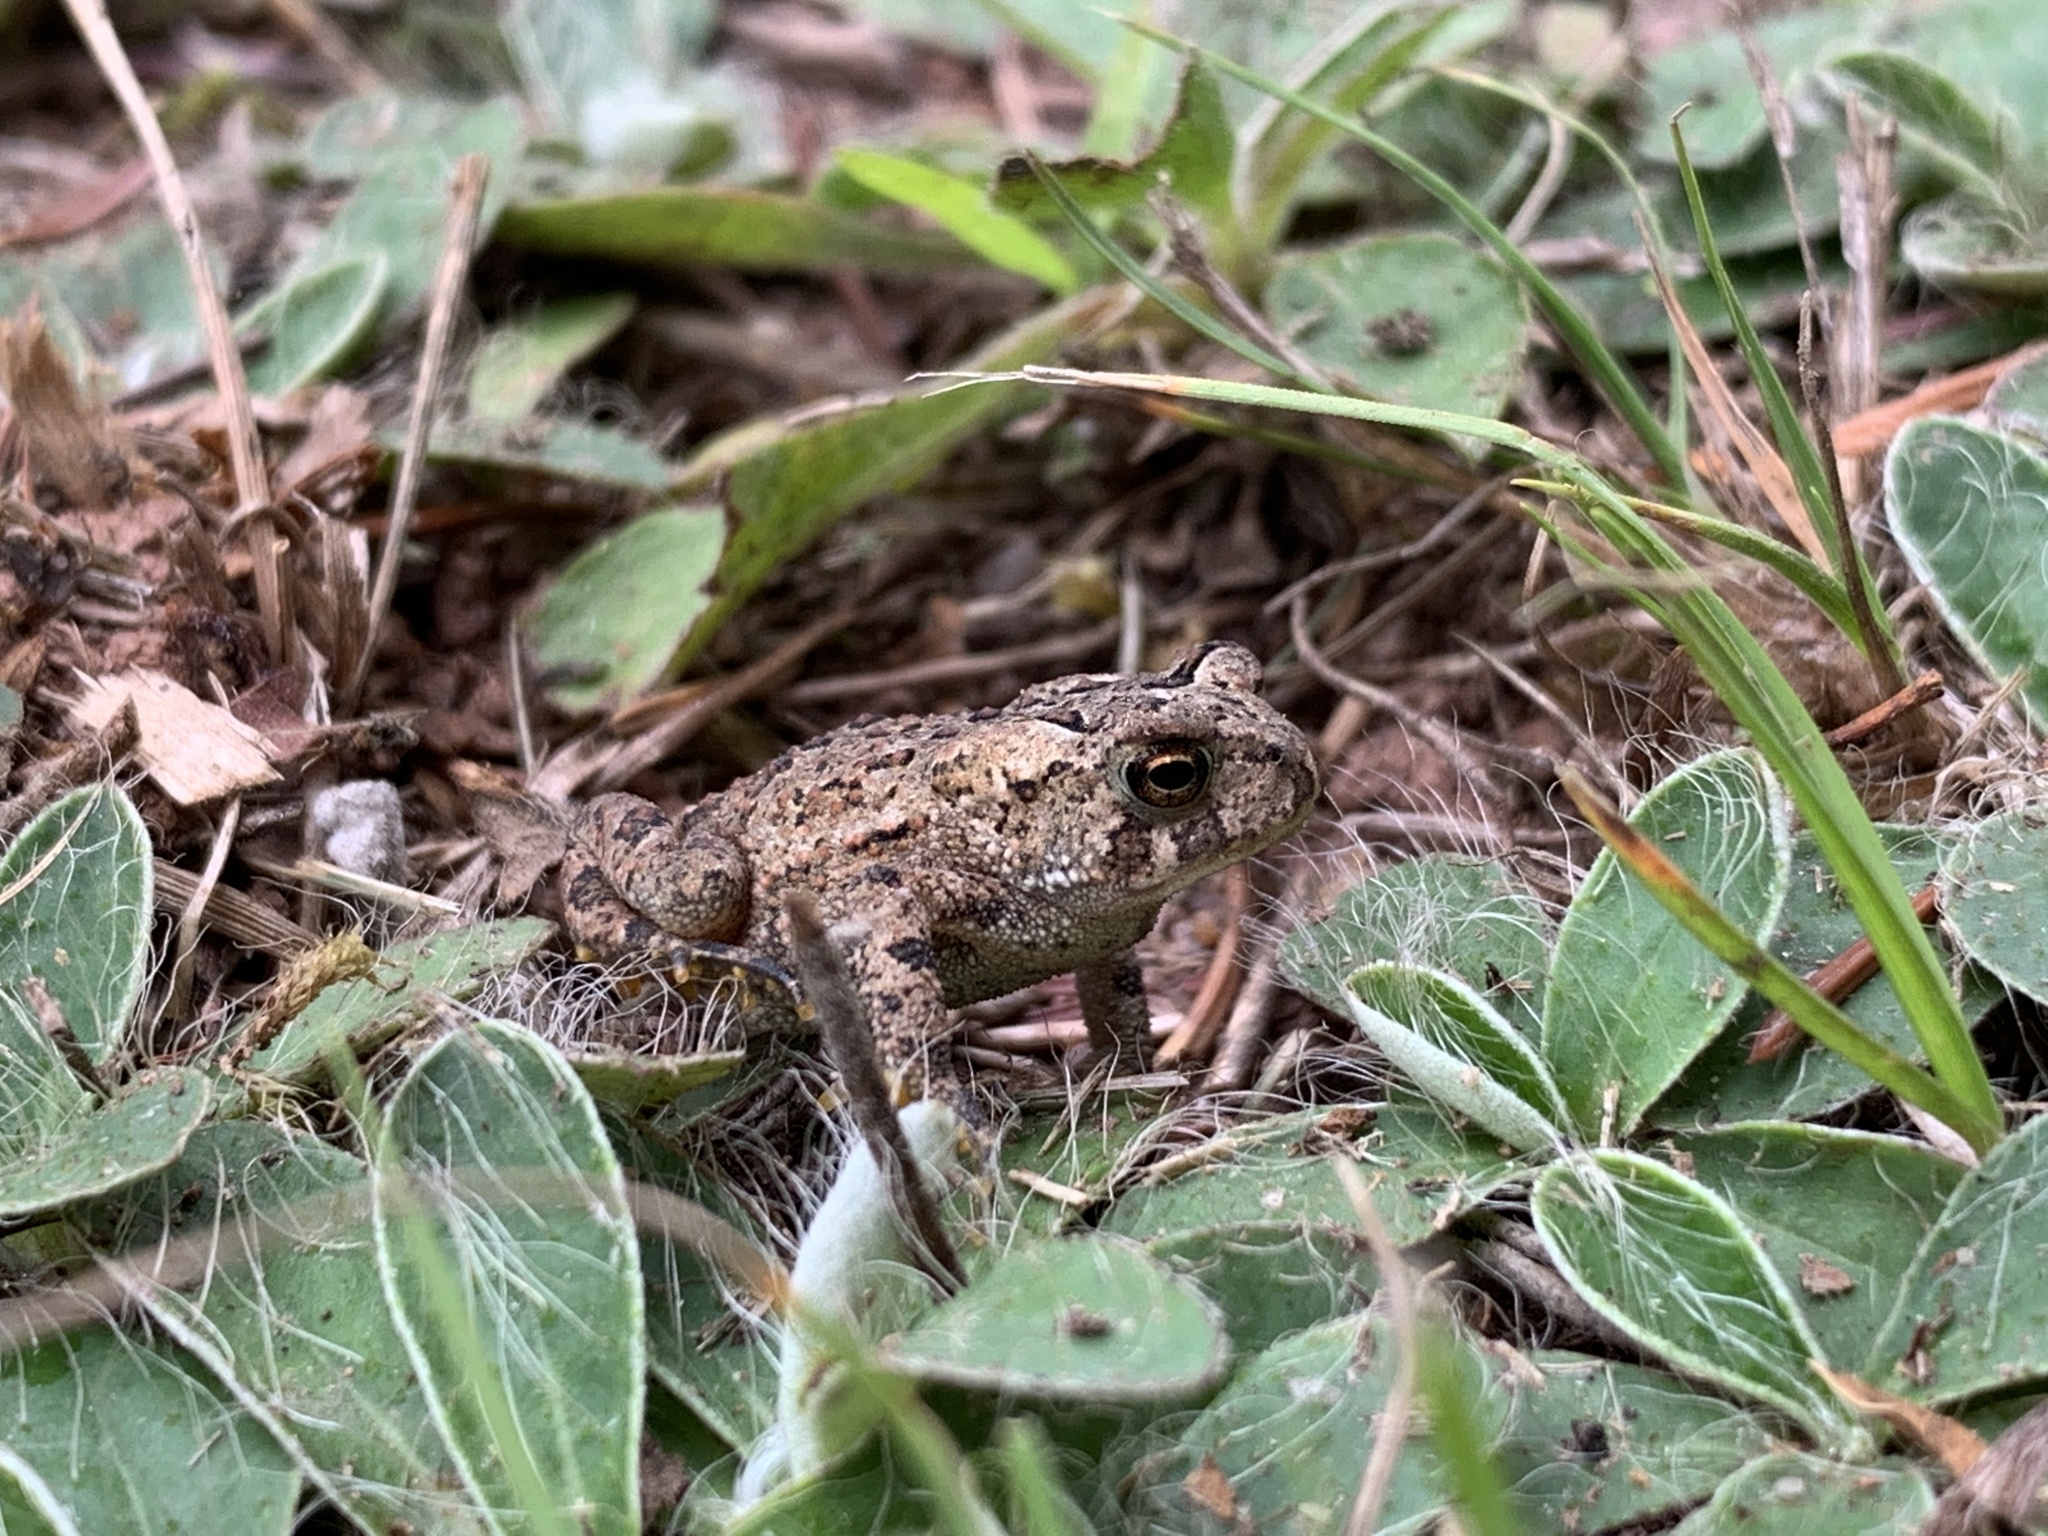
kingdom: Animalia
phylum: Chordata
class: Amphibia
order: Anura
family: Bufonidae
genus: Anaxyrus
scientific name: Anaxyrus americanus
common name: American toad
